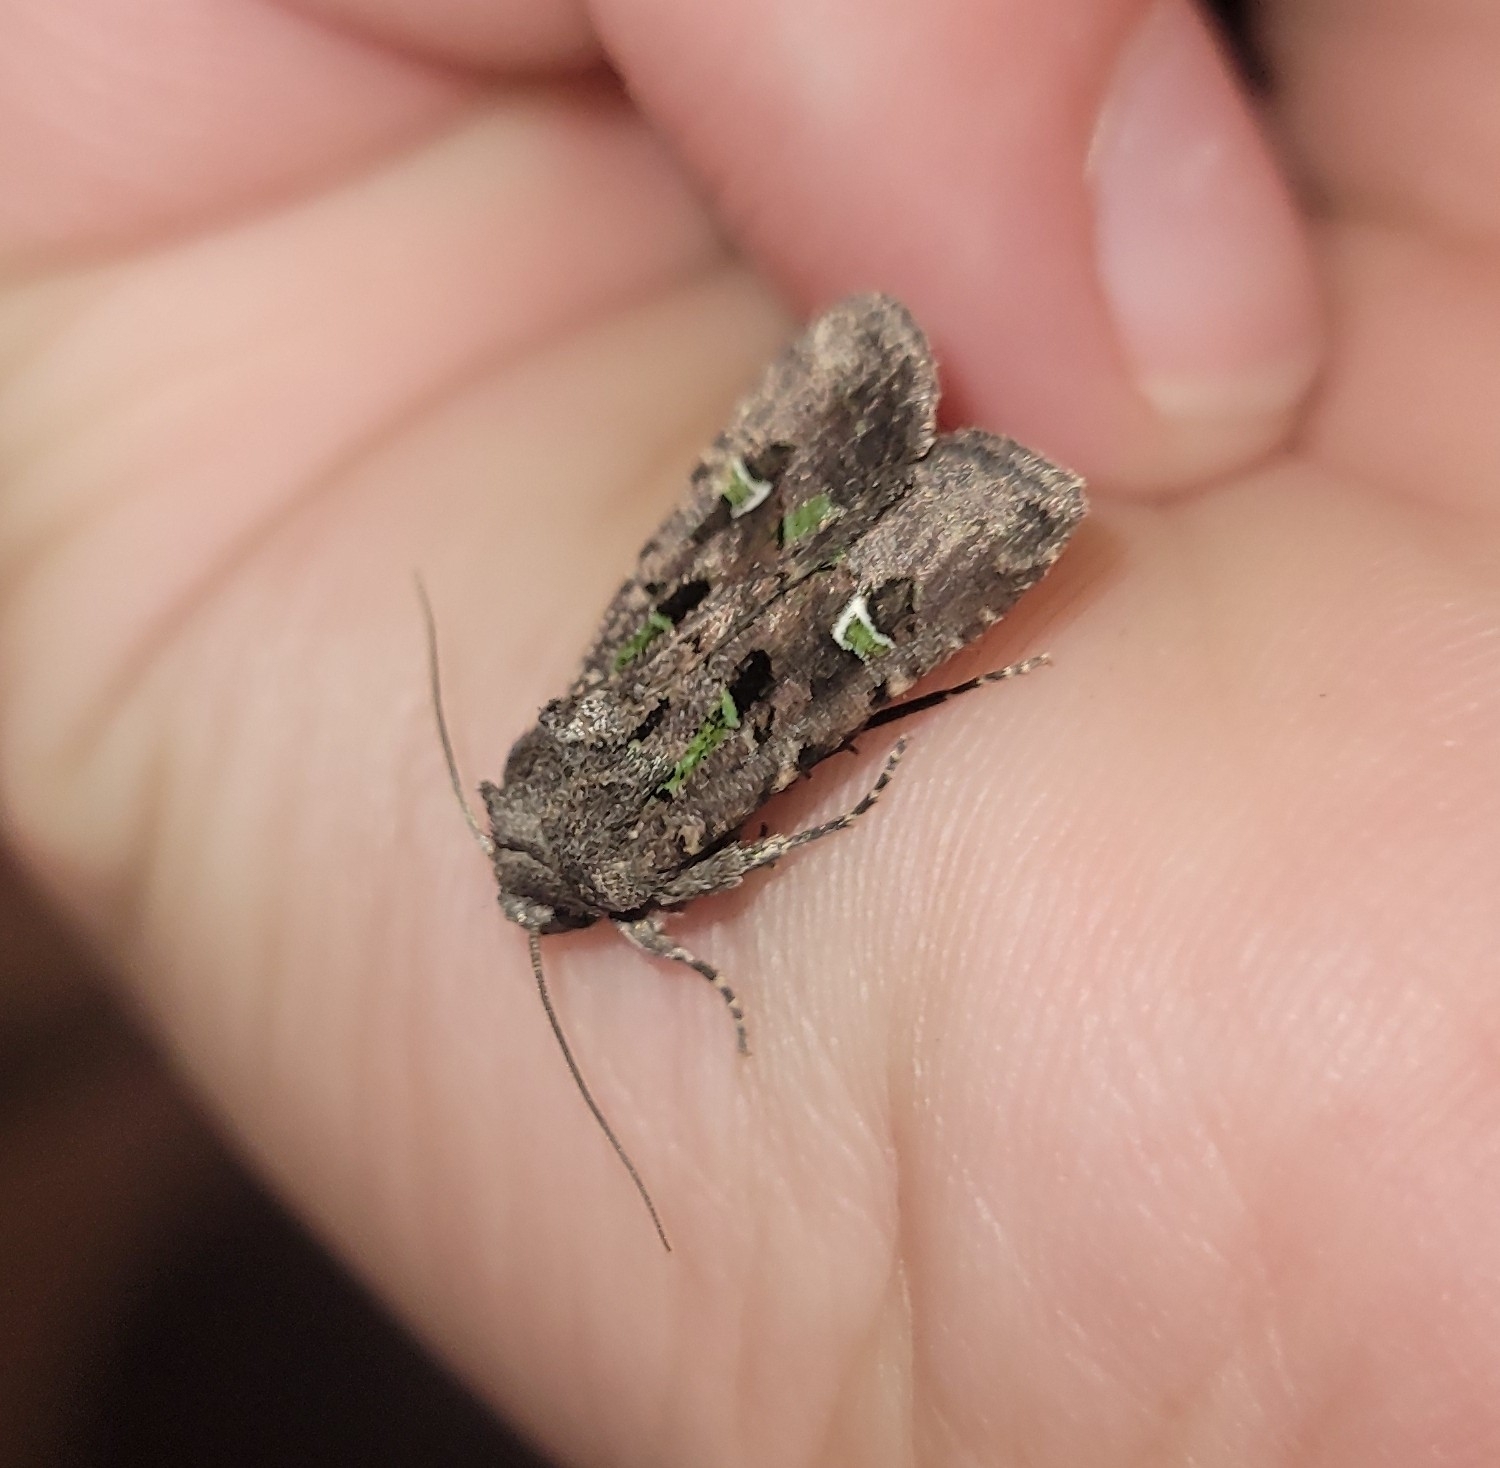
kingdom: Animalia
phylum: Arthropoda
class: Insecta
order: Lepidoptera
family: Noctuidae
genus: Lacinipolia
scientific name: Lacinipolia renigera
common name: Kidney-spotted minor
